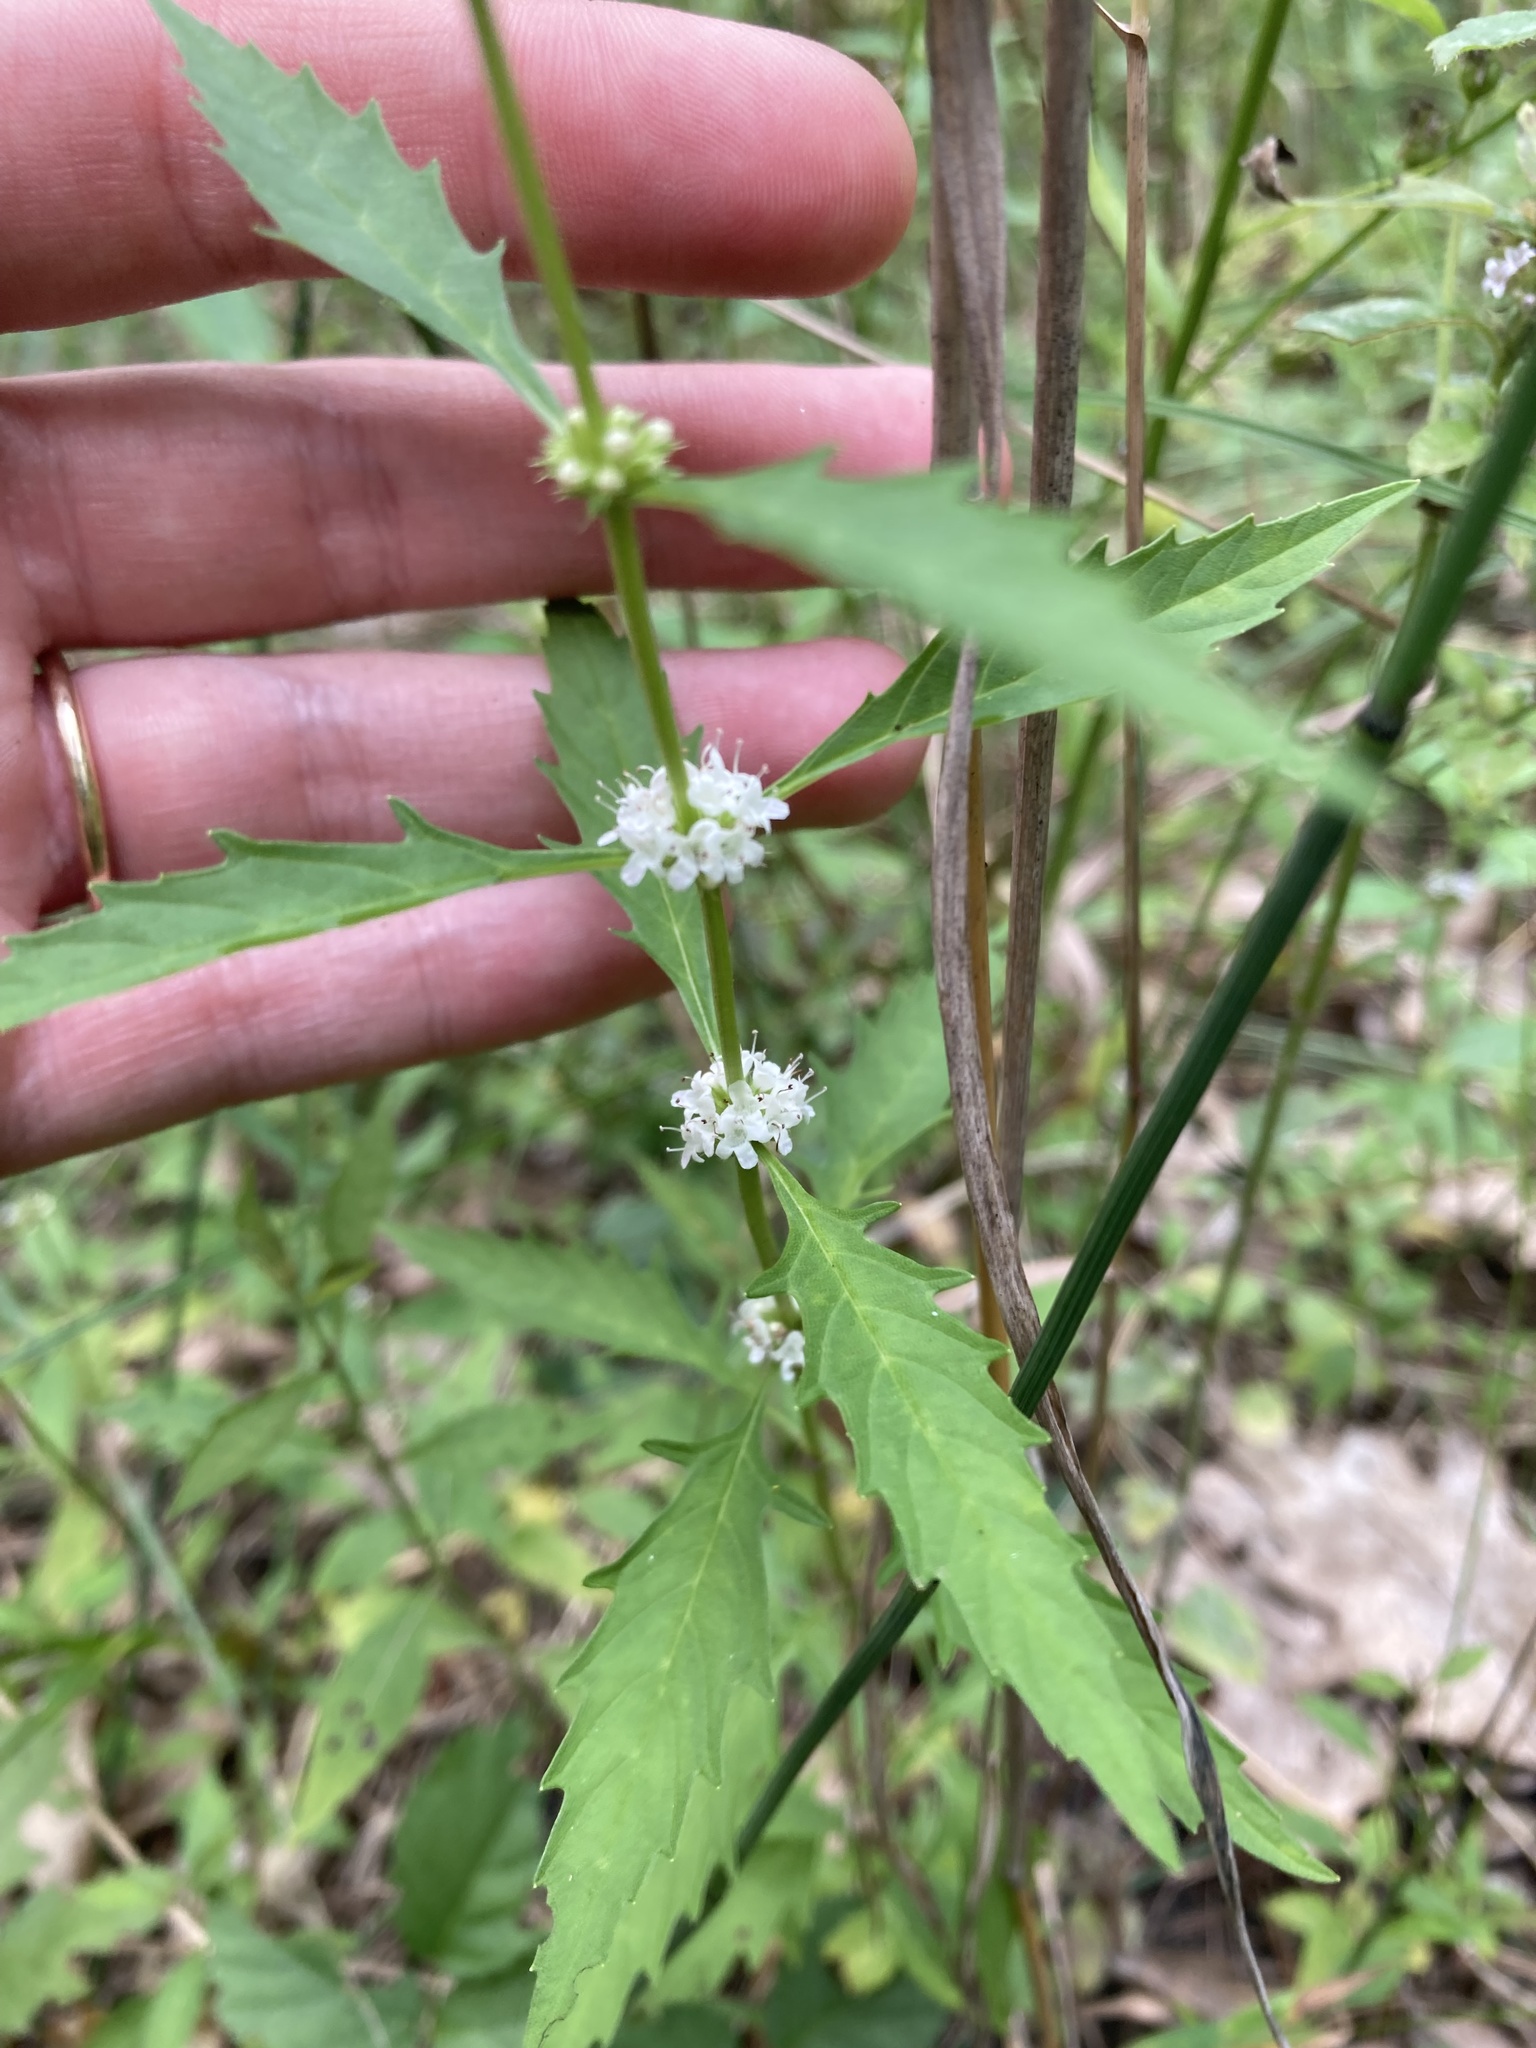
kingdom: Plantae
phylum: Tracheophyta
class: Magnoliopsida
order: Lamiales
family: Lamiaceae
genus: Lycopus
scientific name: Lycopus americanus
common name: American bugleweed
